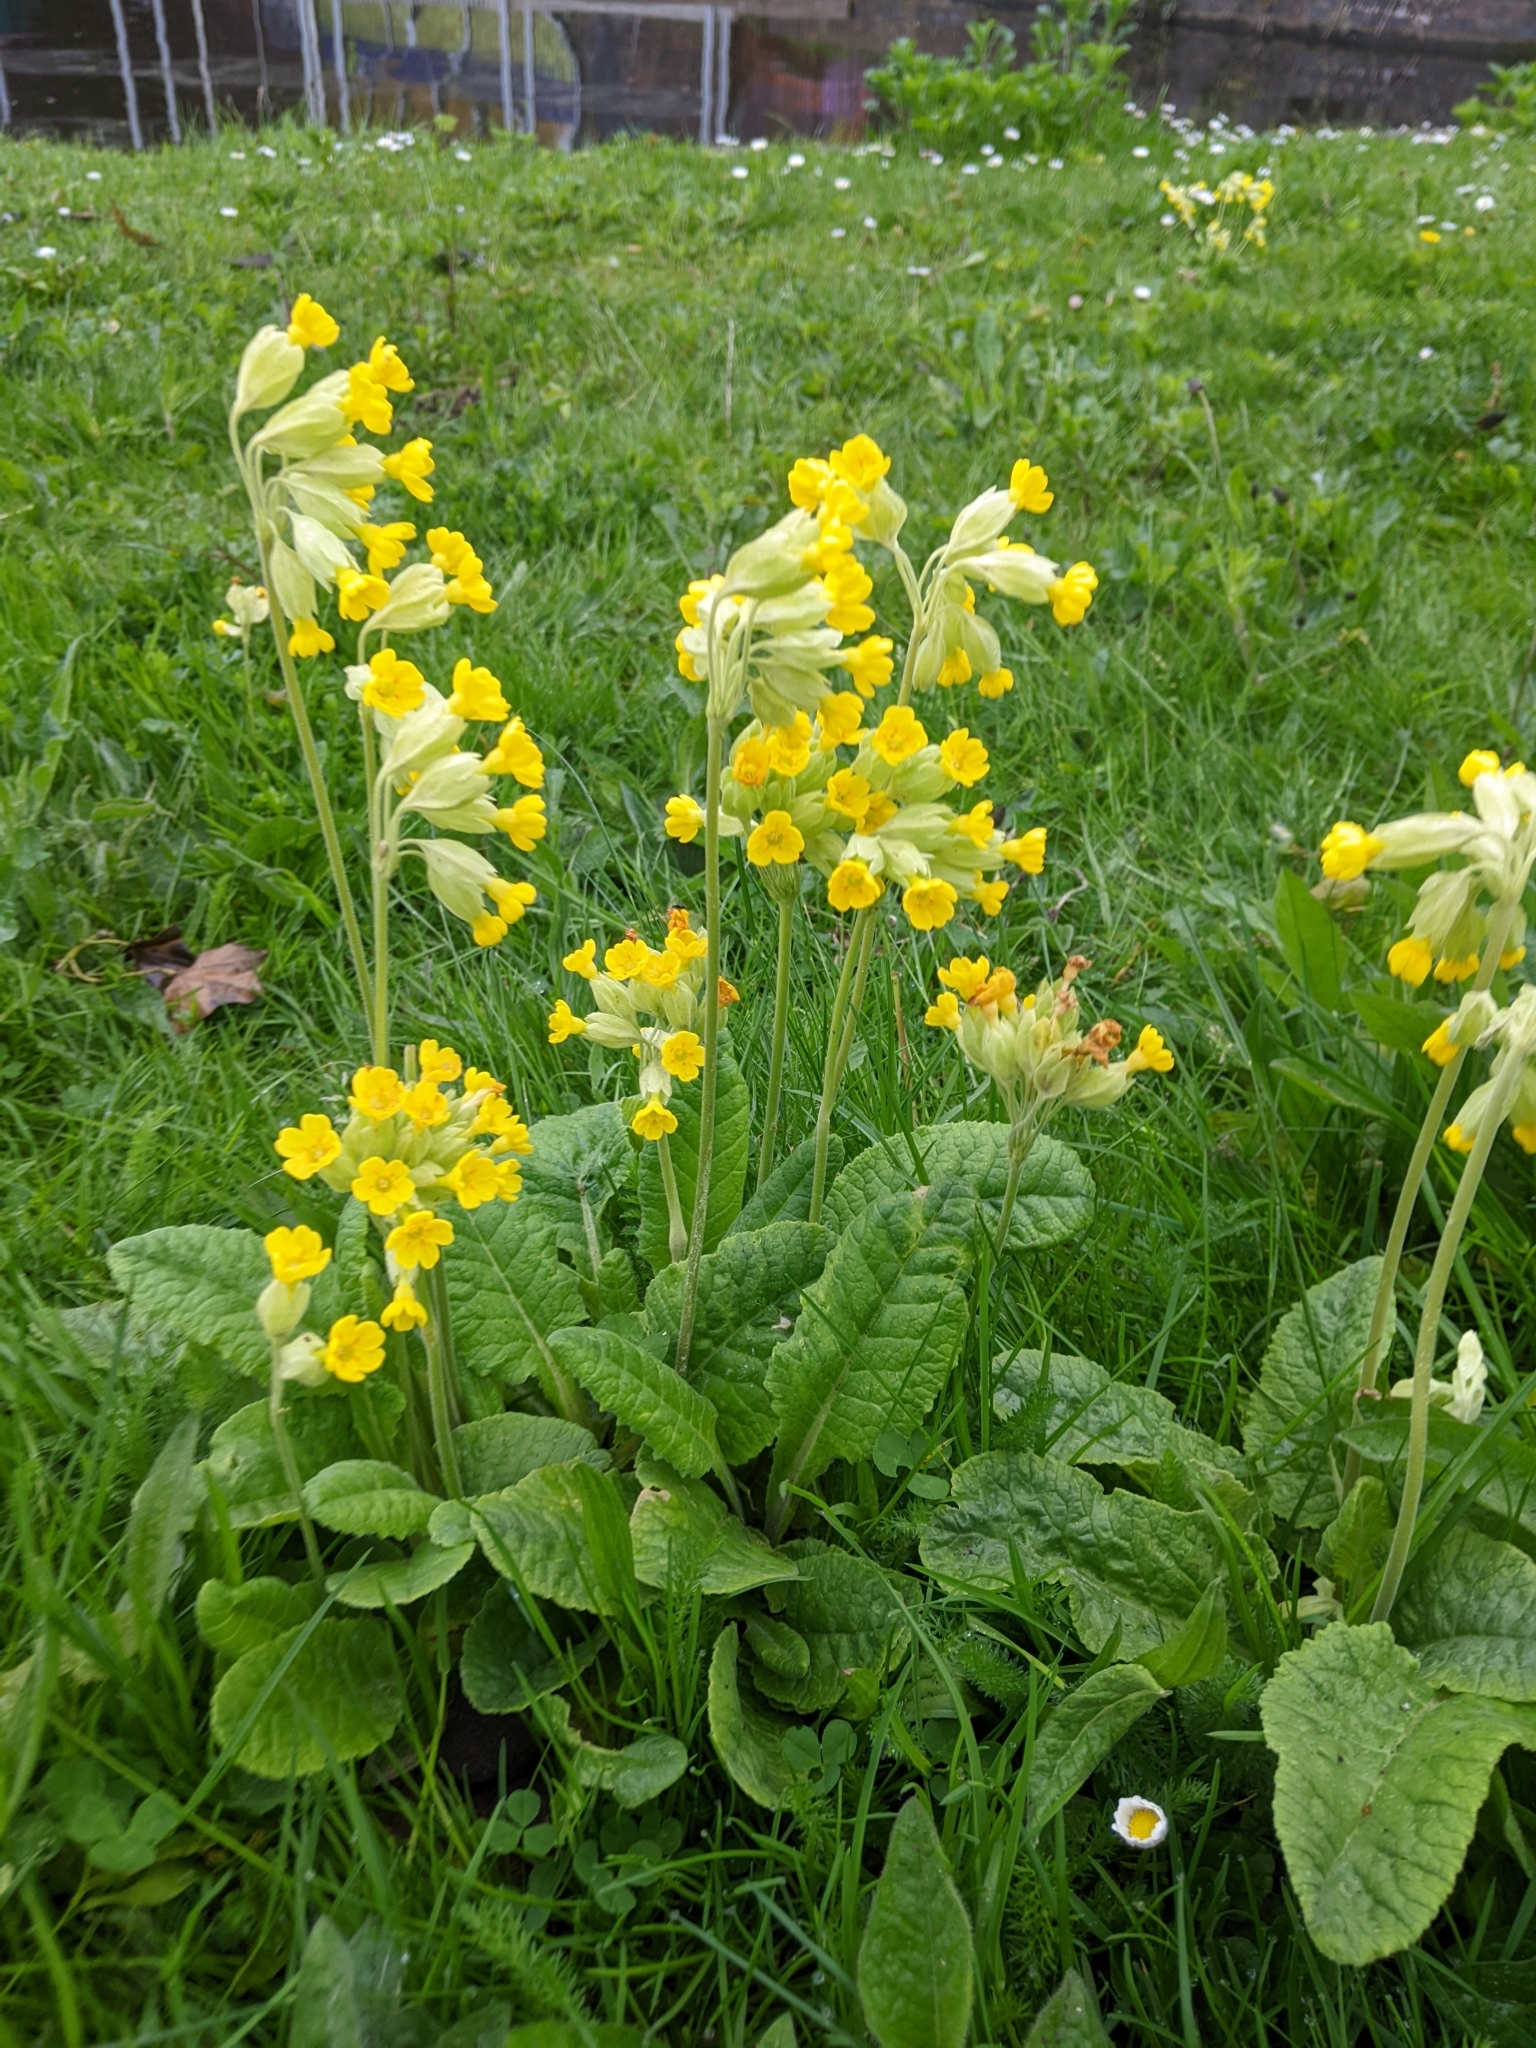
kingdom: Plantae
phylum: Tracheophyta
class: Magnoliopsida
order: Ericales
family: Primulaceae
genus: Primula
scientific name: Primula veris
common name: Cowslip
